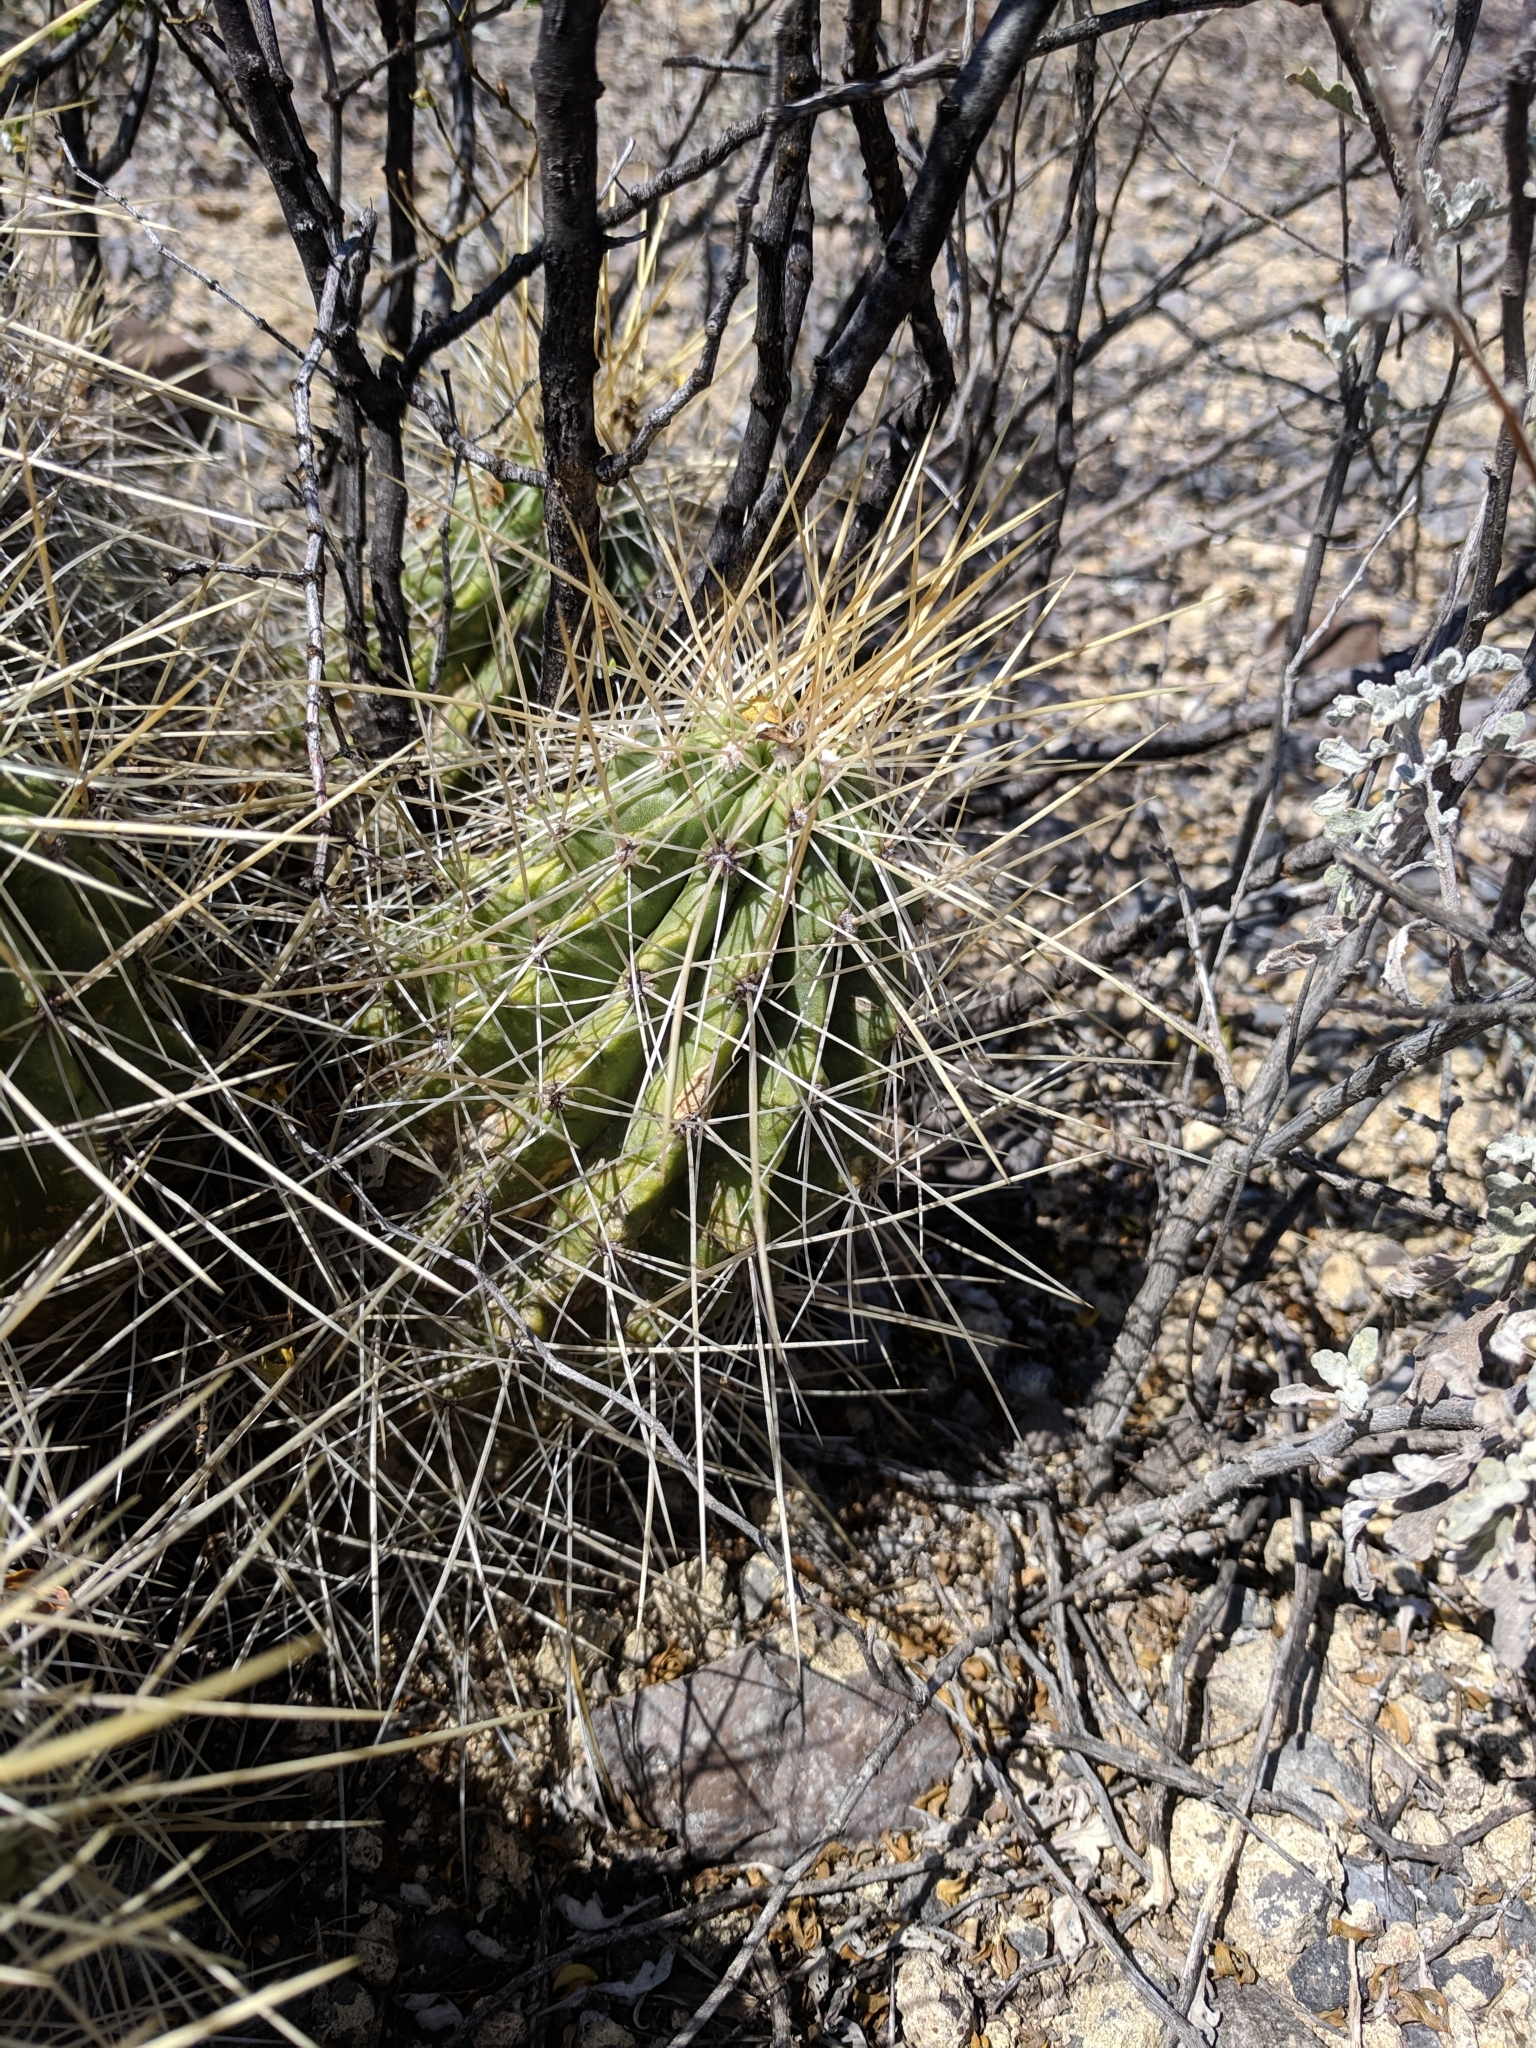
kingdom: Plantae
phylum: Tracheophyta
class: Magnoliopsida
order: Caryophyllales
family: Cactaceae
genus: Echinocereus
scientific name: Echinocereus stramineus
